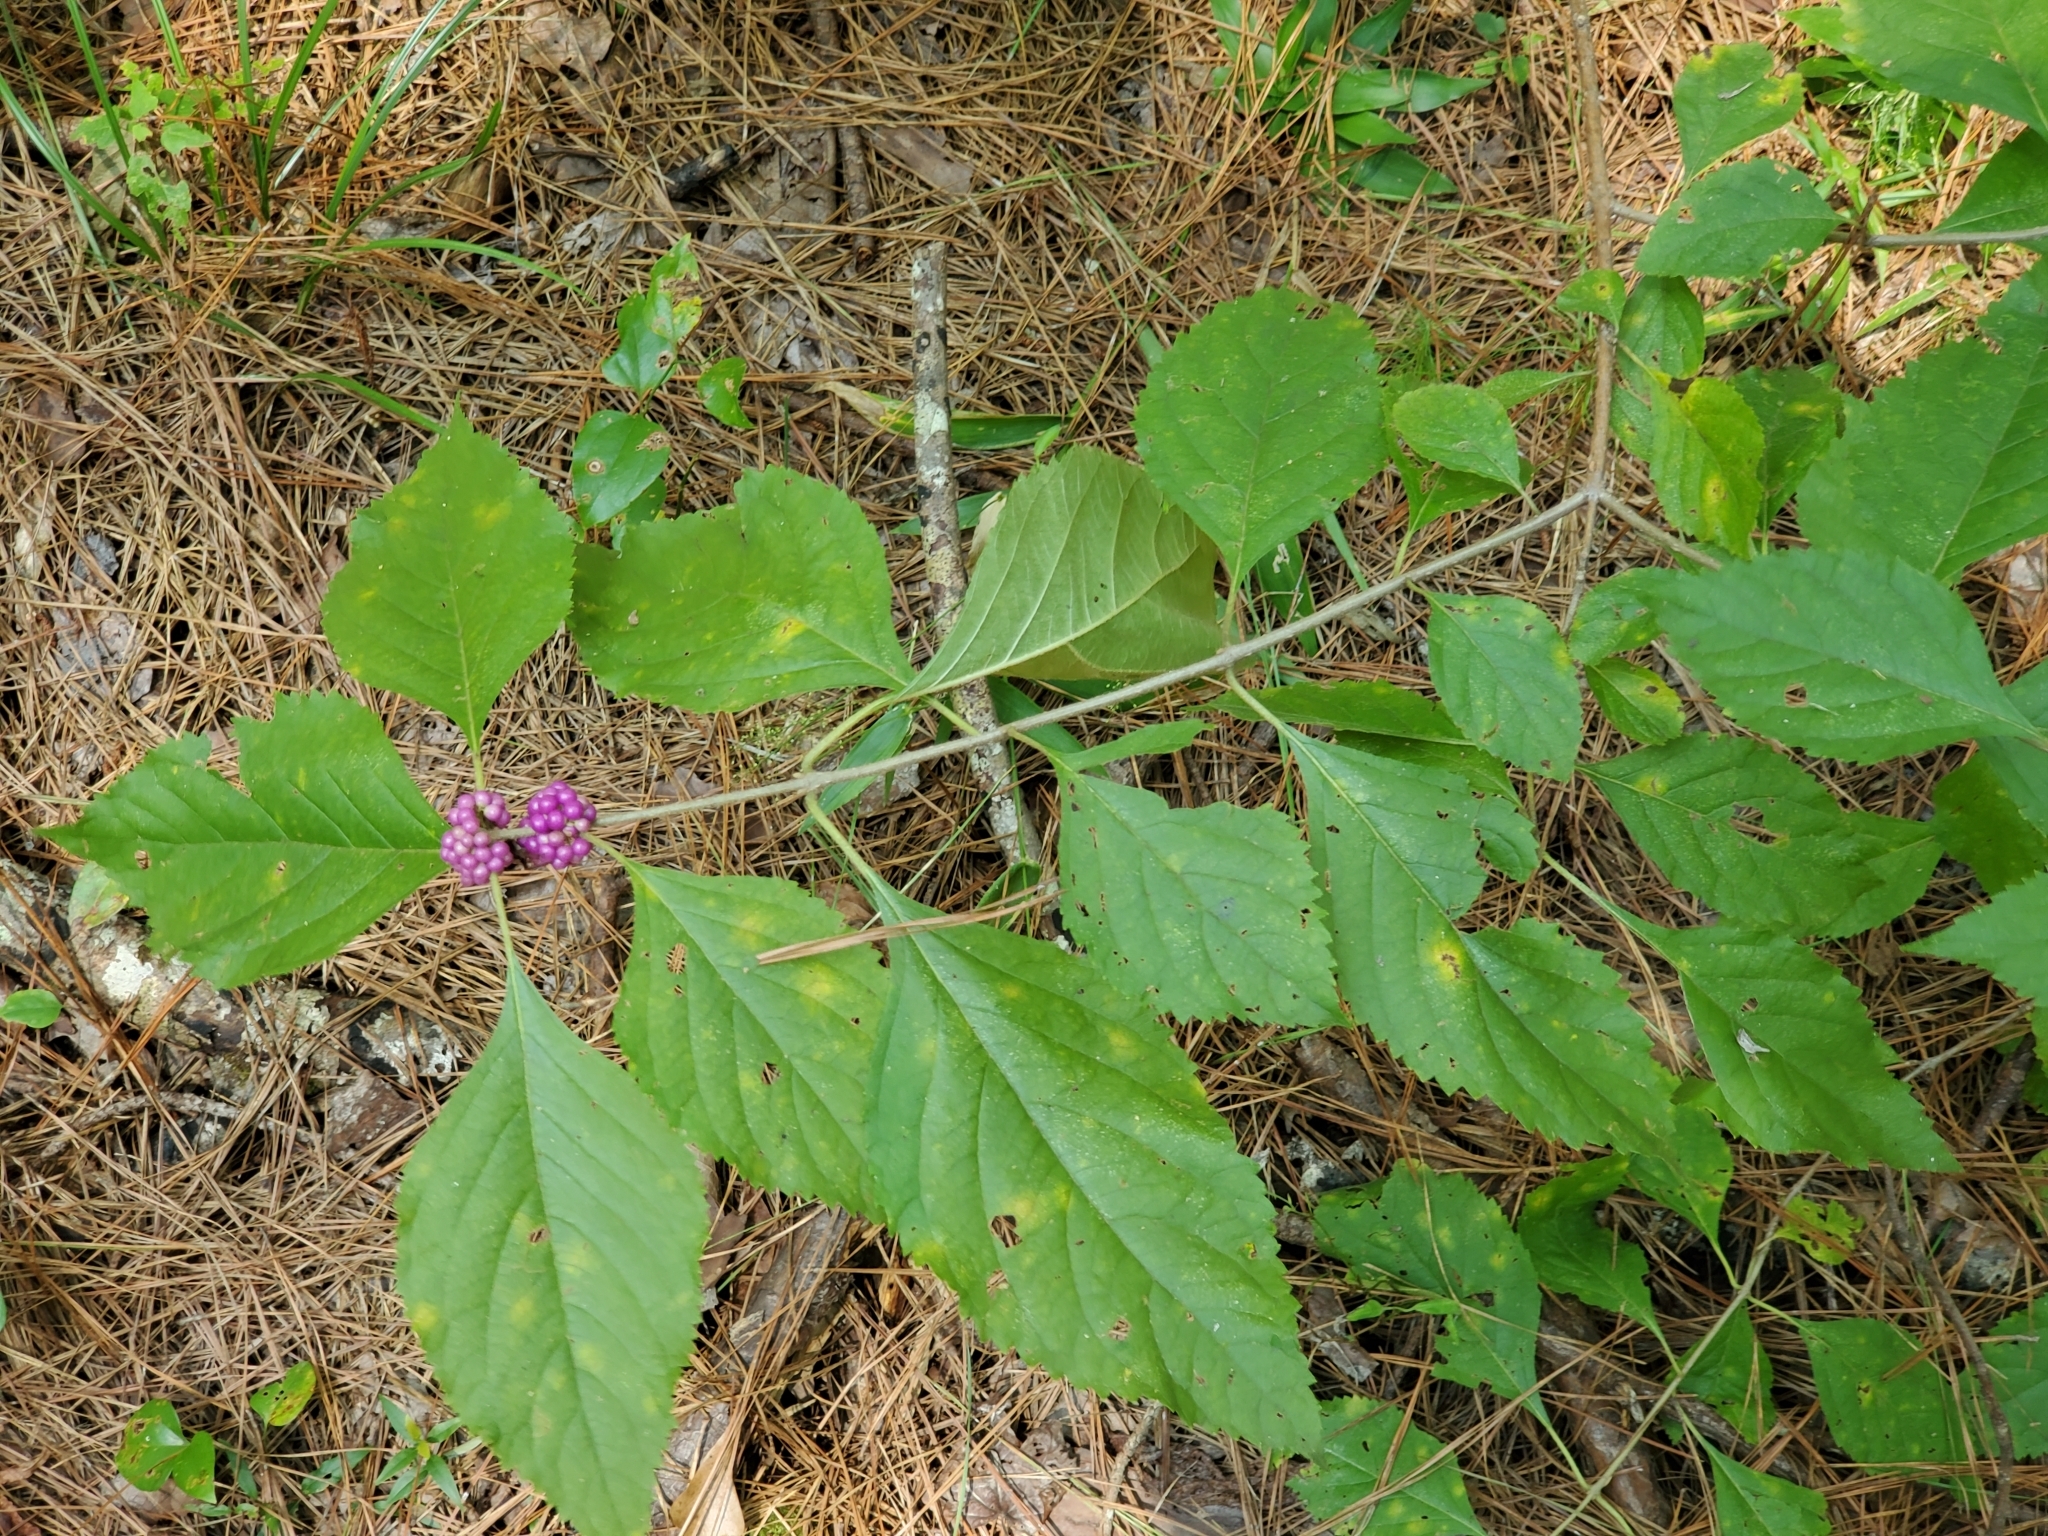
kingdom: Plantae
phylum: Tracheophyta
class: Magnoliopsida
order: Lamiales
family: Lamiaceae
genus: Callicarpa
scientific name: Callicarpa americana
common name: American beautyberry
